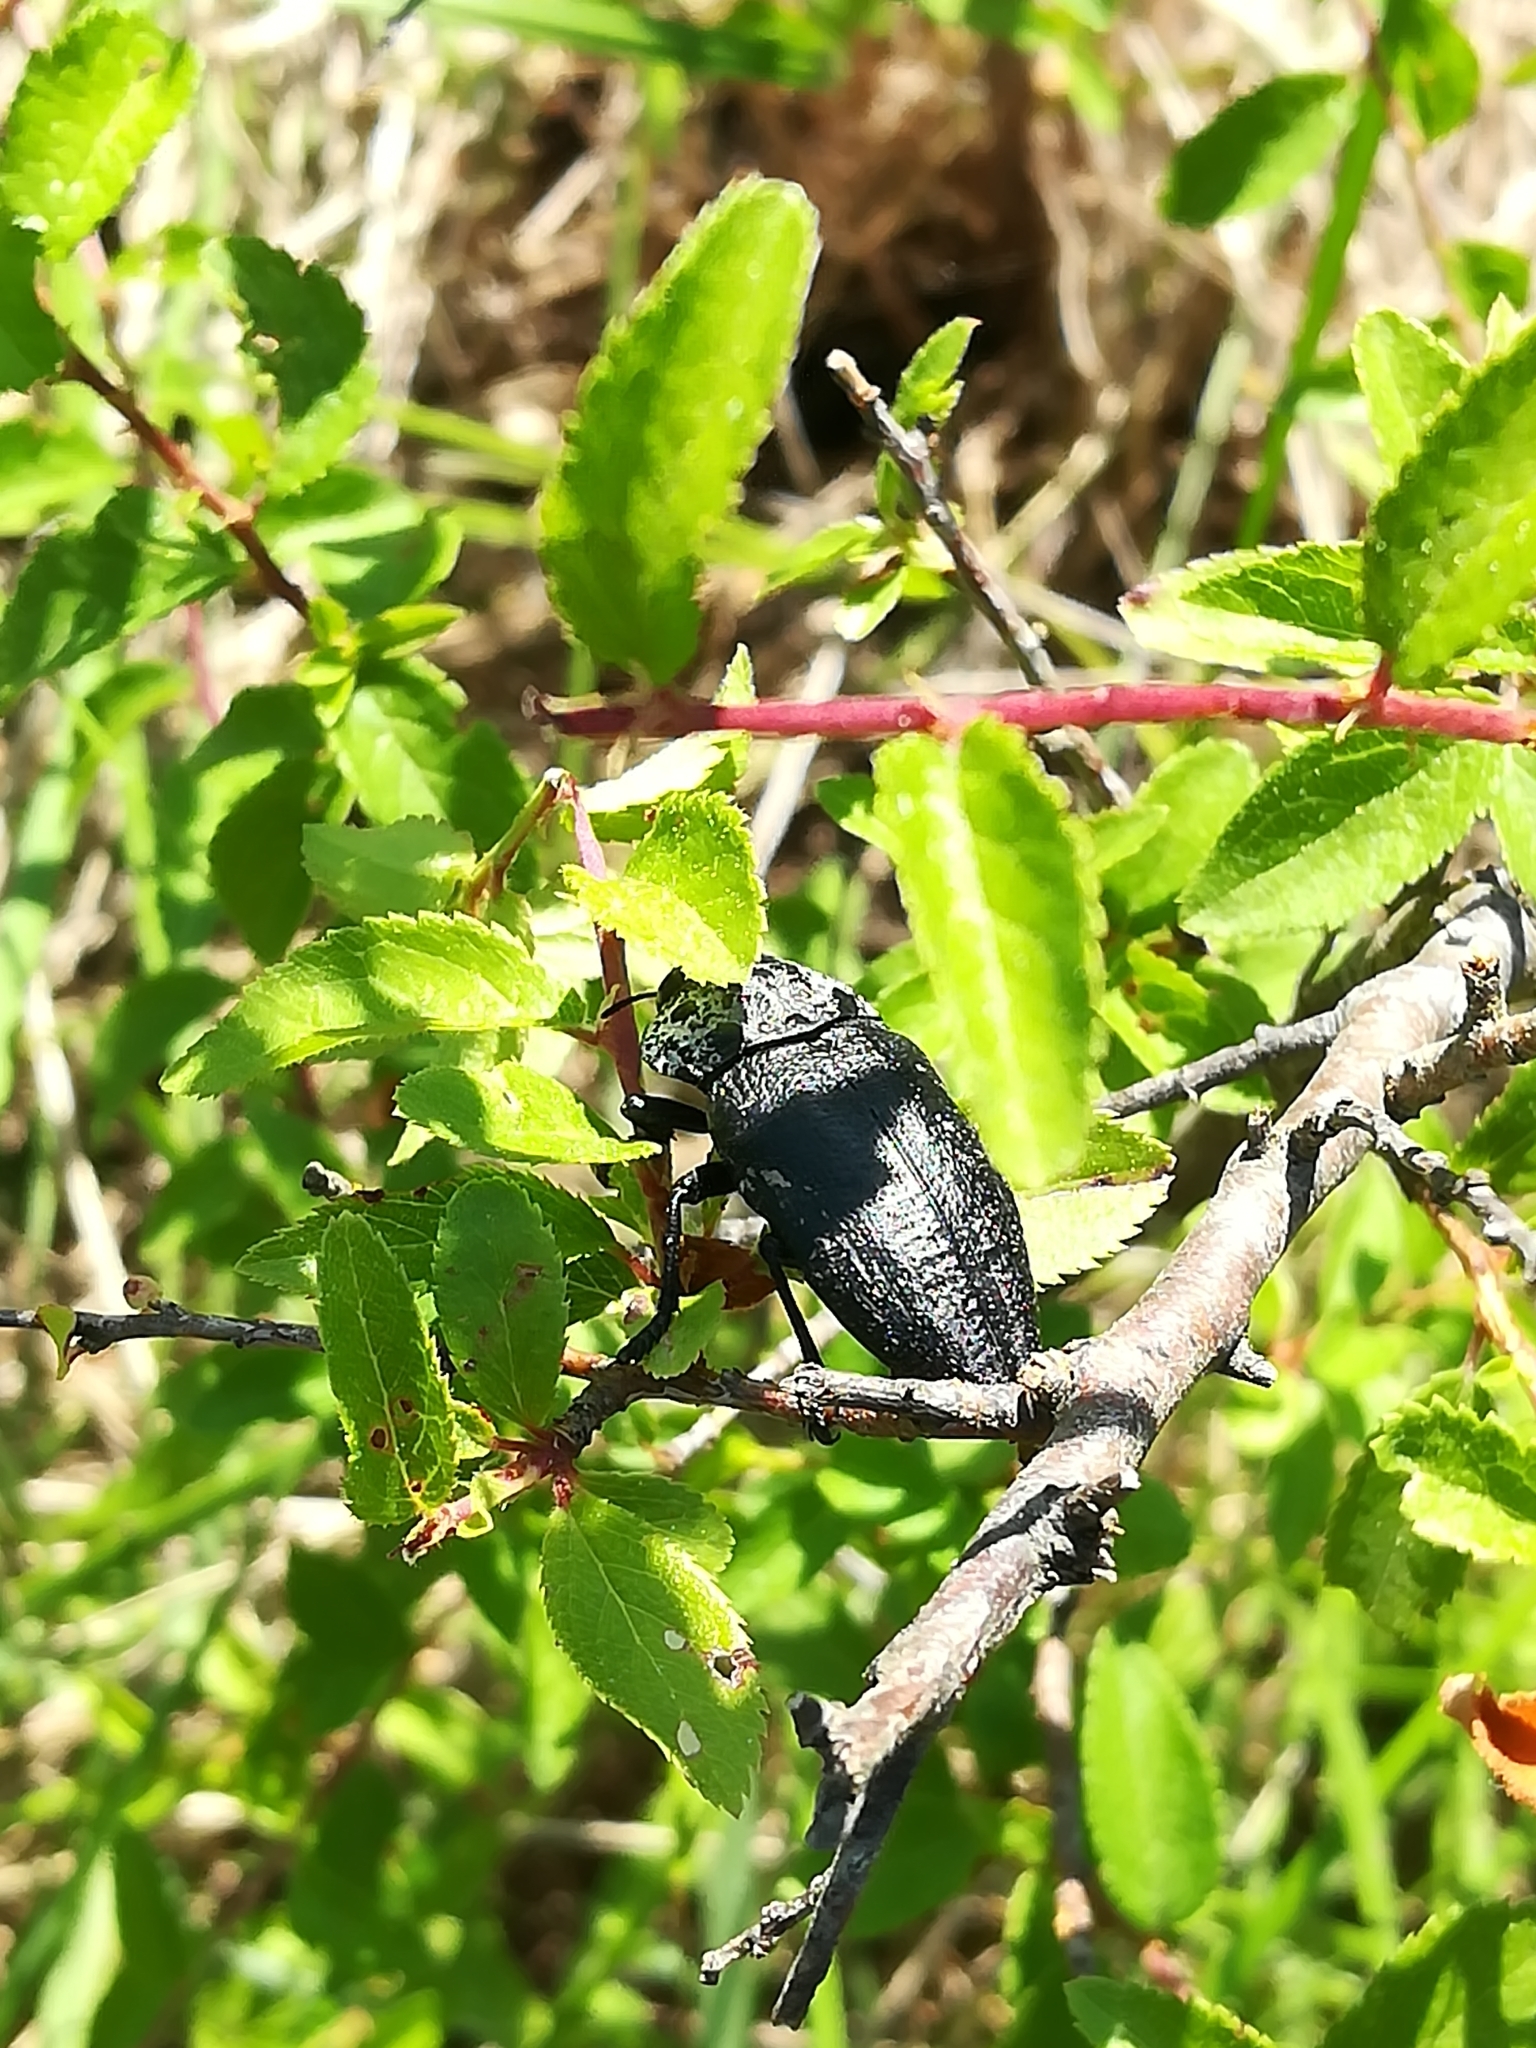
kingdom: Animalia
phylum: Arthropoda
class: Insecta
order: Coleoptera
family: Buprestidae
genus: Capnodis
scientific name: Capnodis tenebrionis
